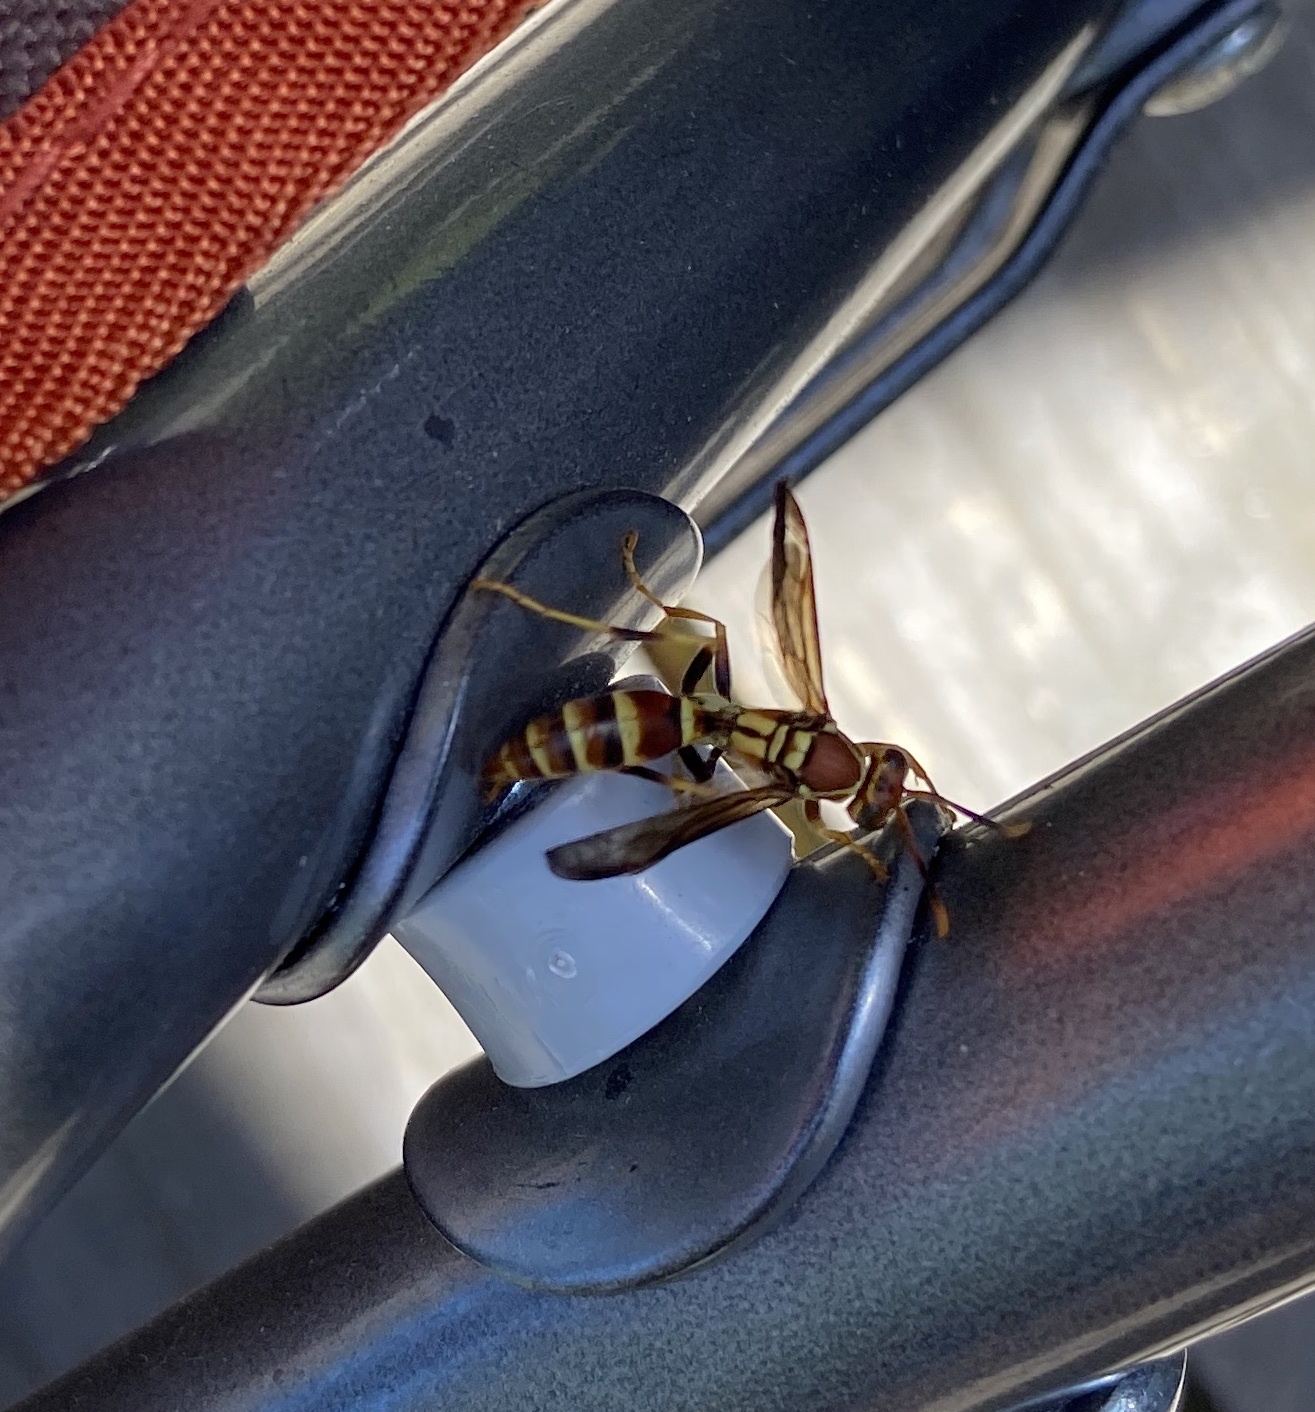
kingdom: Animalia
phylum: Arthropoda
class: Insecta
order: Hymenoptera
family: Eumenidae
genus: Polistes
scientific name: Polistes exclamans
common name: Paper wasp
